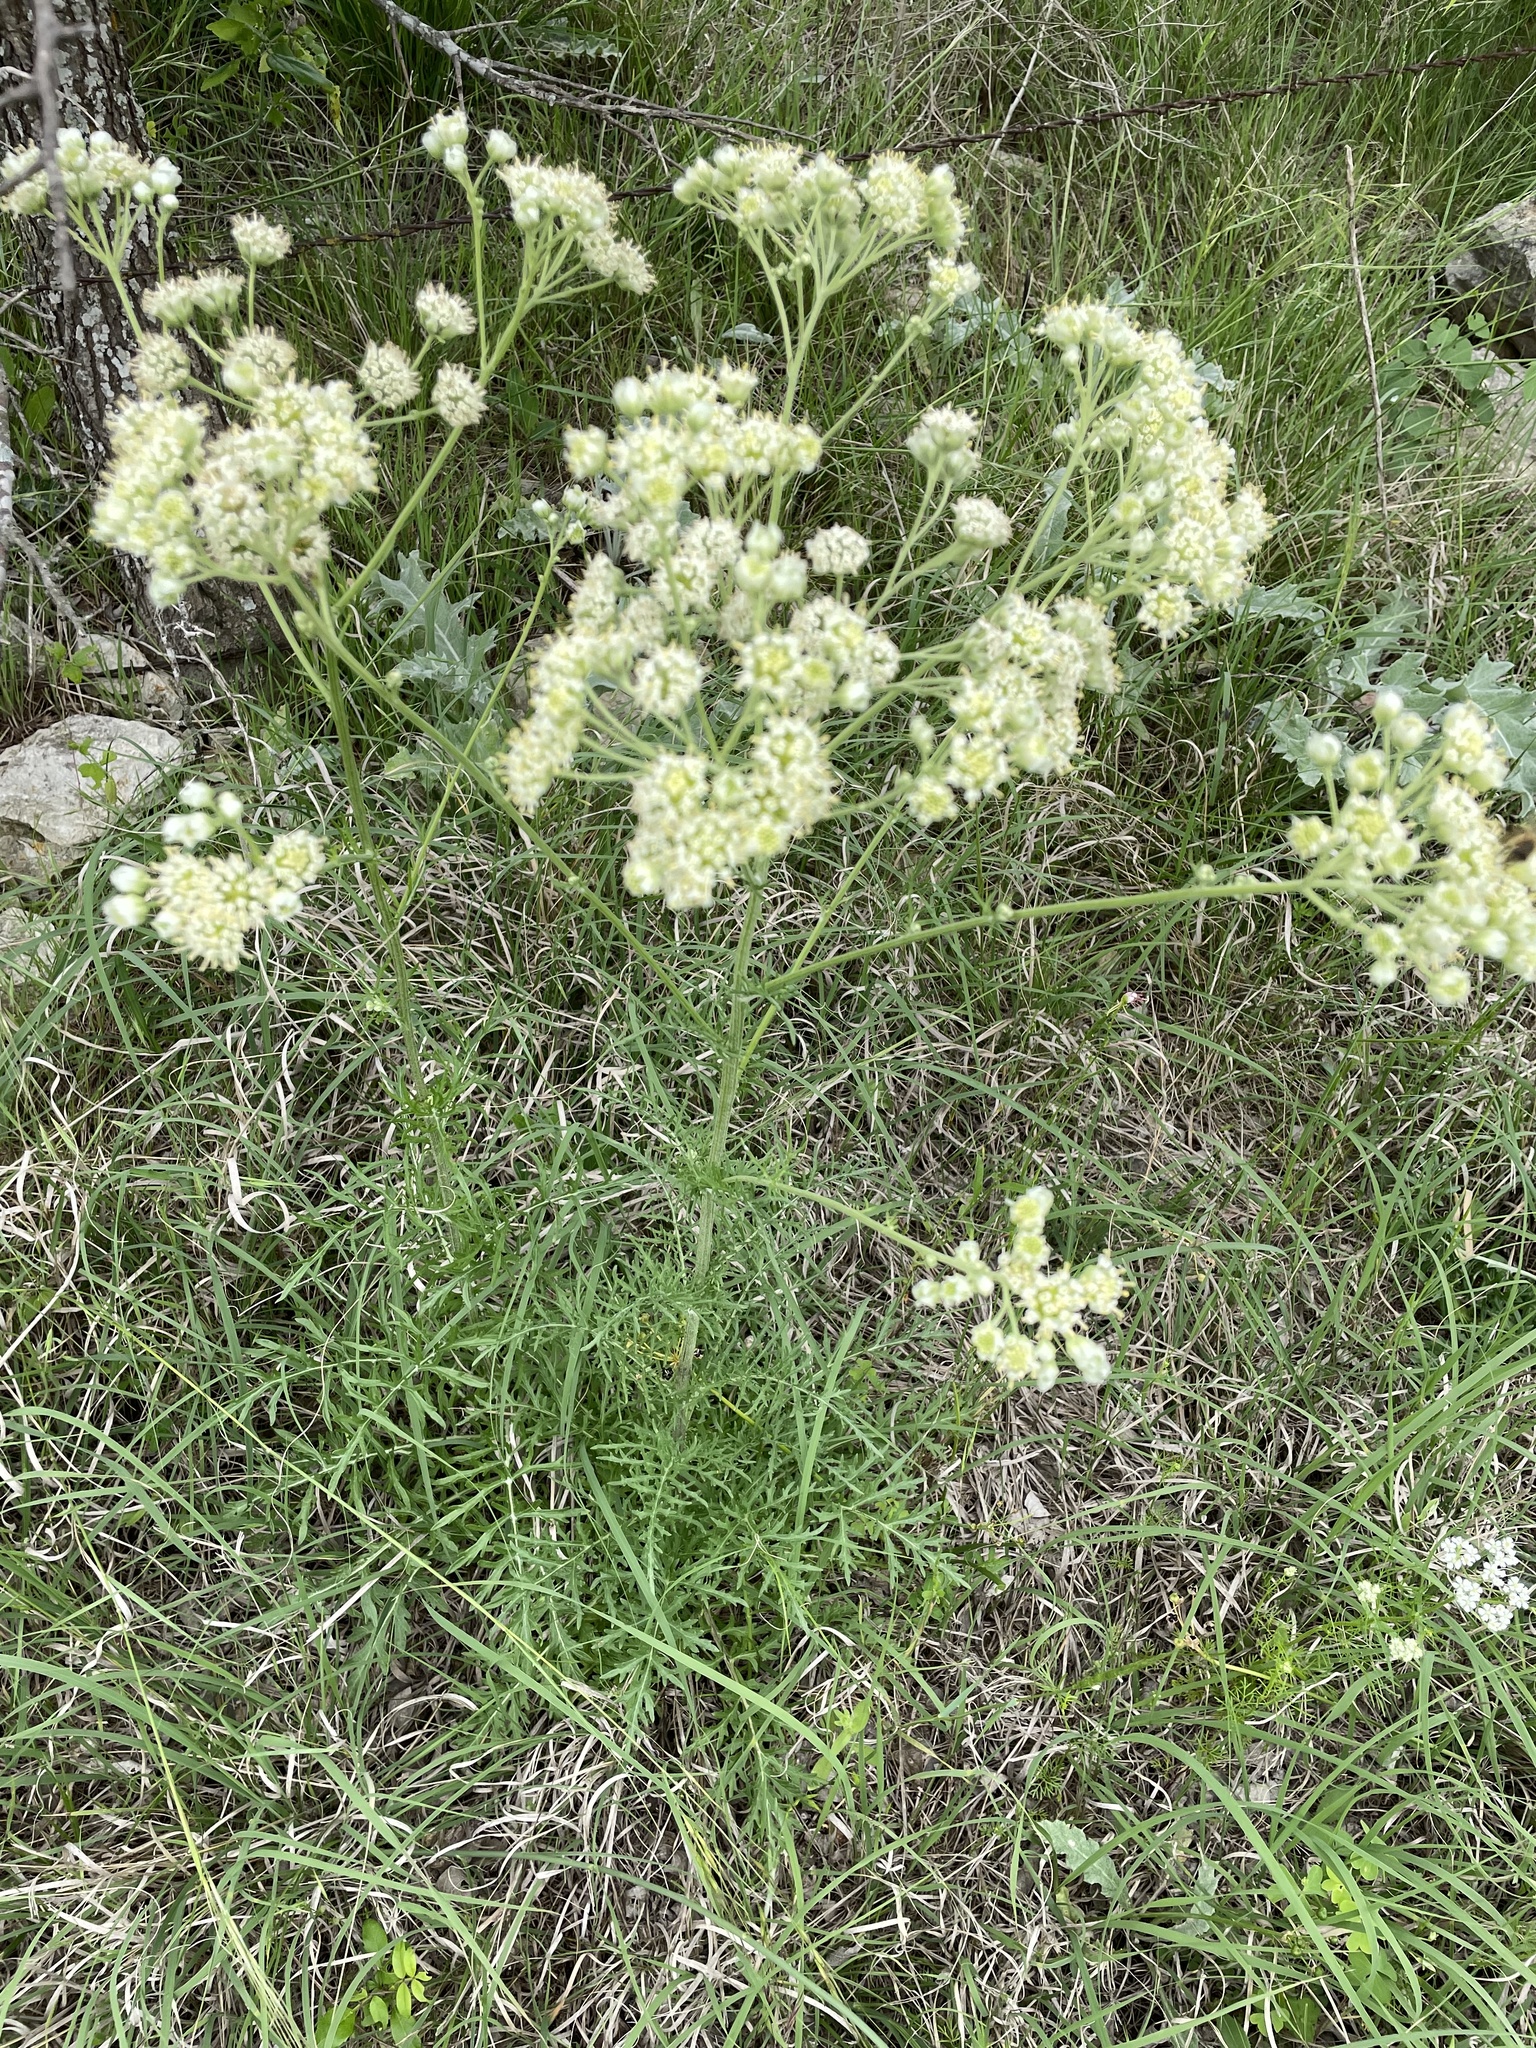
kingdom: Plantae
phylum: Tracheophyta
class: Magnoliopsida
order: Asterales
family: Asteraceae
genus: Hymenopappus
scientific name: Hymenopappus scabiosaeus
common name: Carolina woollywhite
